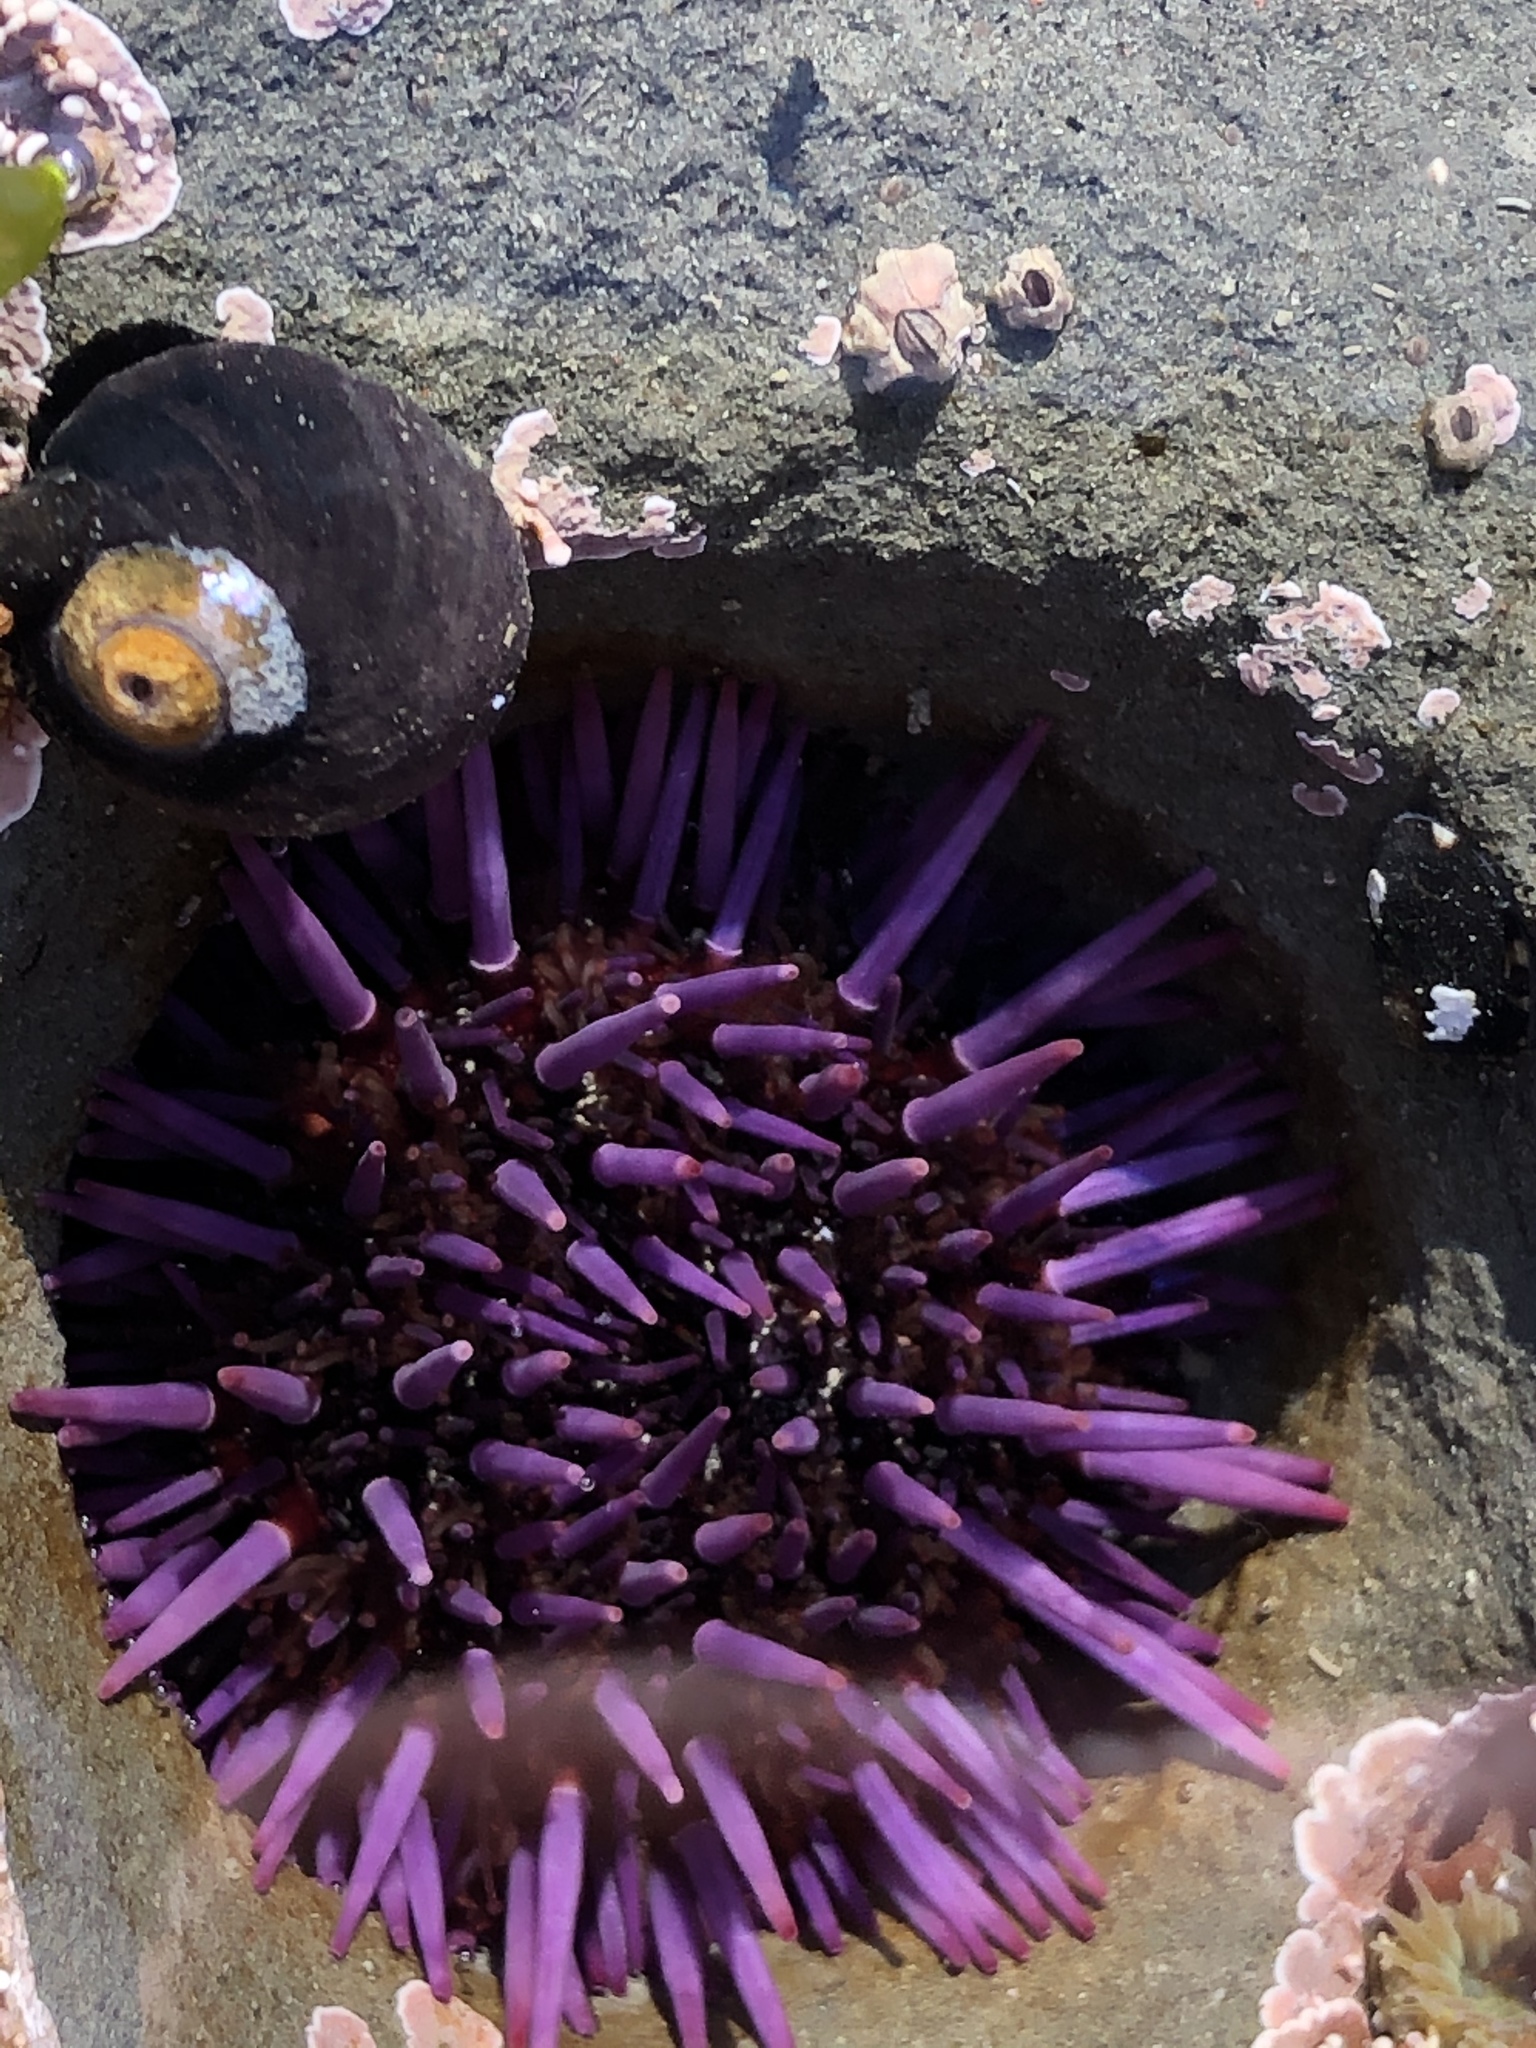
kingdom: Animalia
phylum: Echinodermata
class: Echinoidea
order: Camarodonta
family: Strongylocentrotidae
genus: Strongylocentrotus
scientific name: Strongylocentrotus purpuratus
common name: Purple sea urchin
